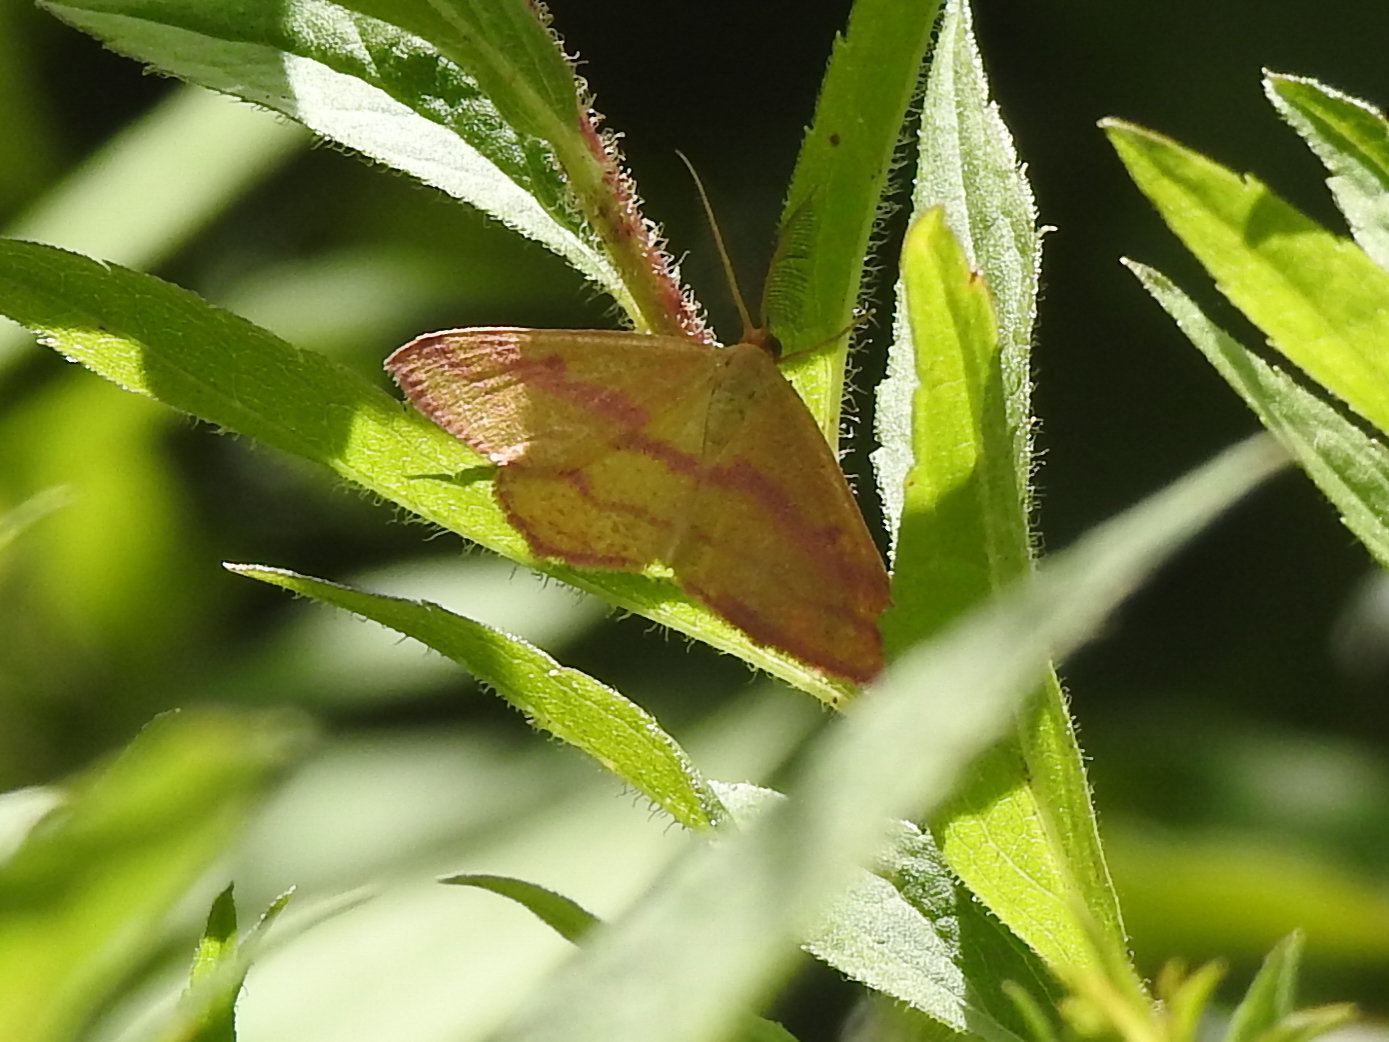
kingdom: Animalia
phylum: Arthropoda
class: Insecta
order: Lepidoptera
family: Geometridae
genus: Haematopis
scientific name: Haematopis grataria
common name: Chickweed geometer
